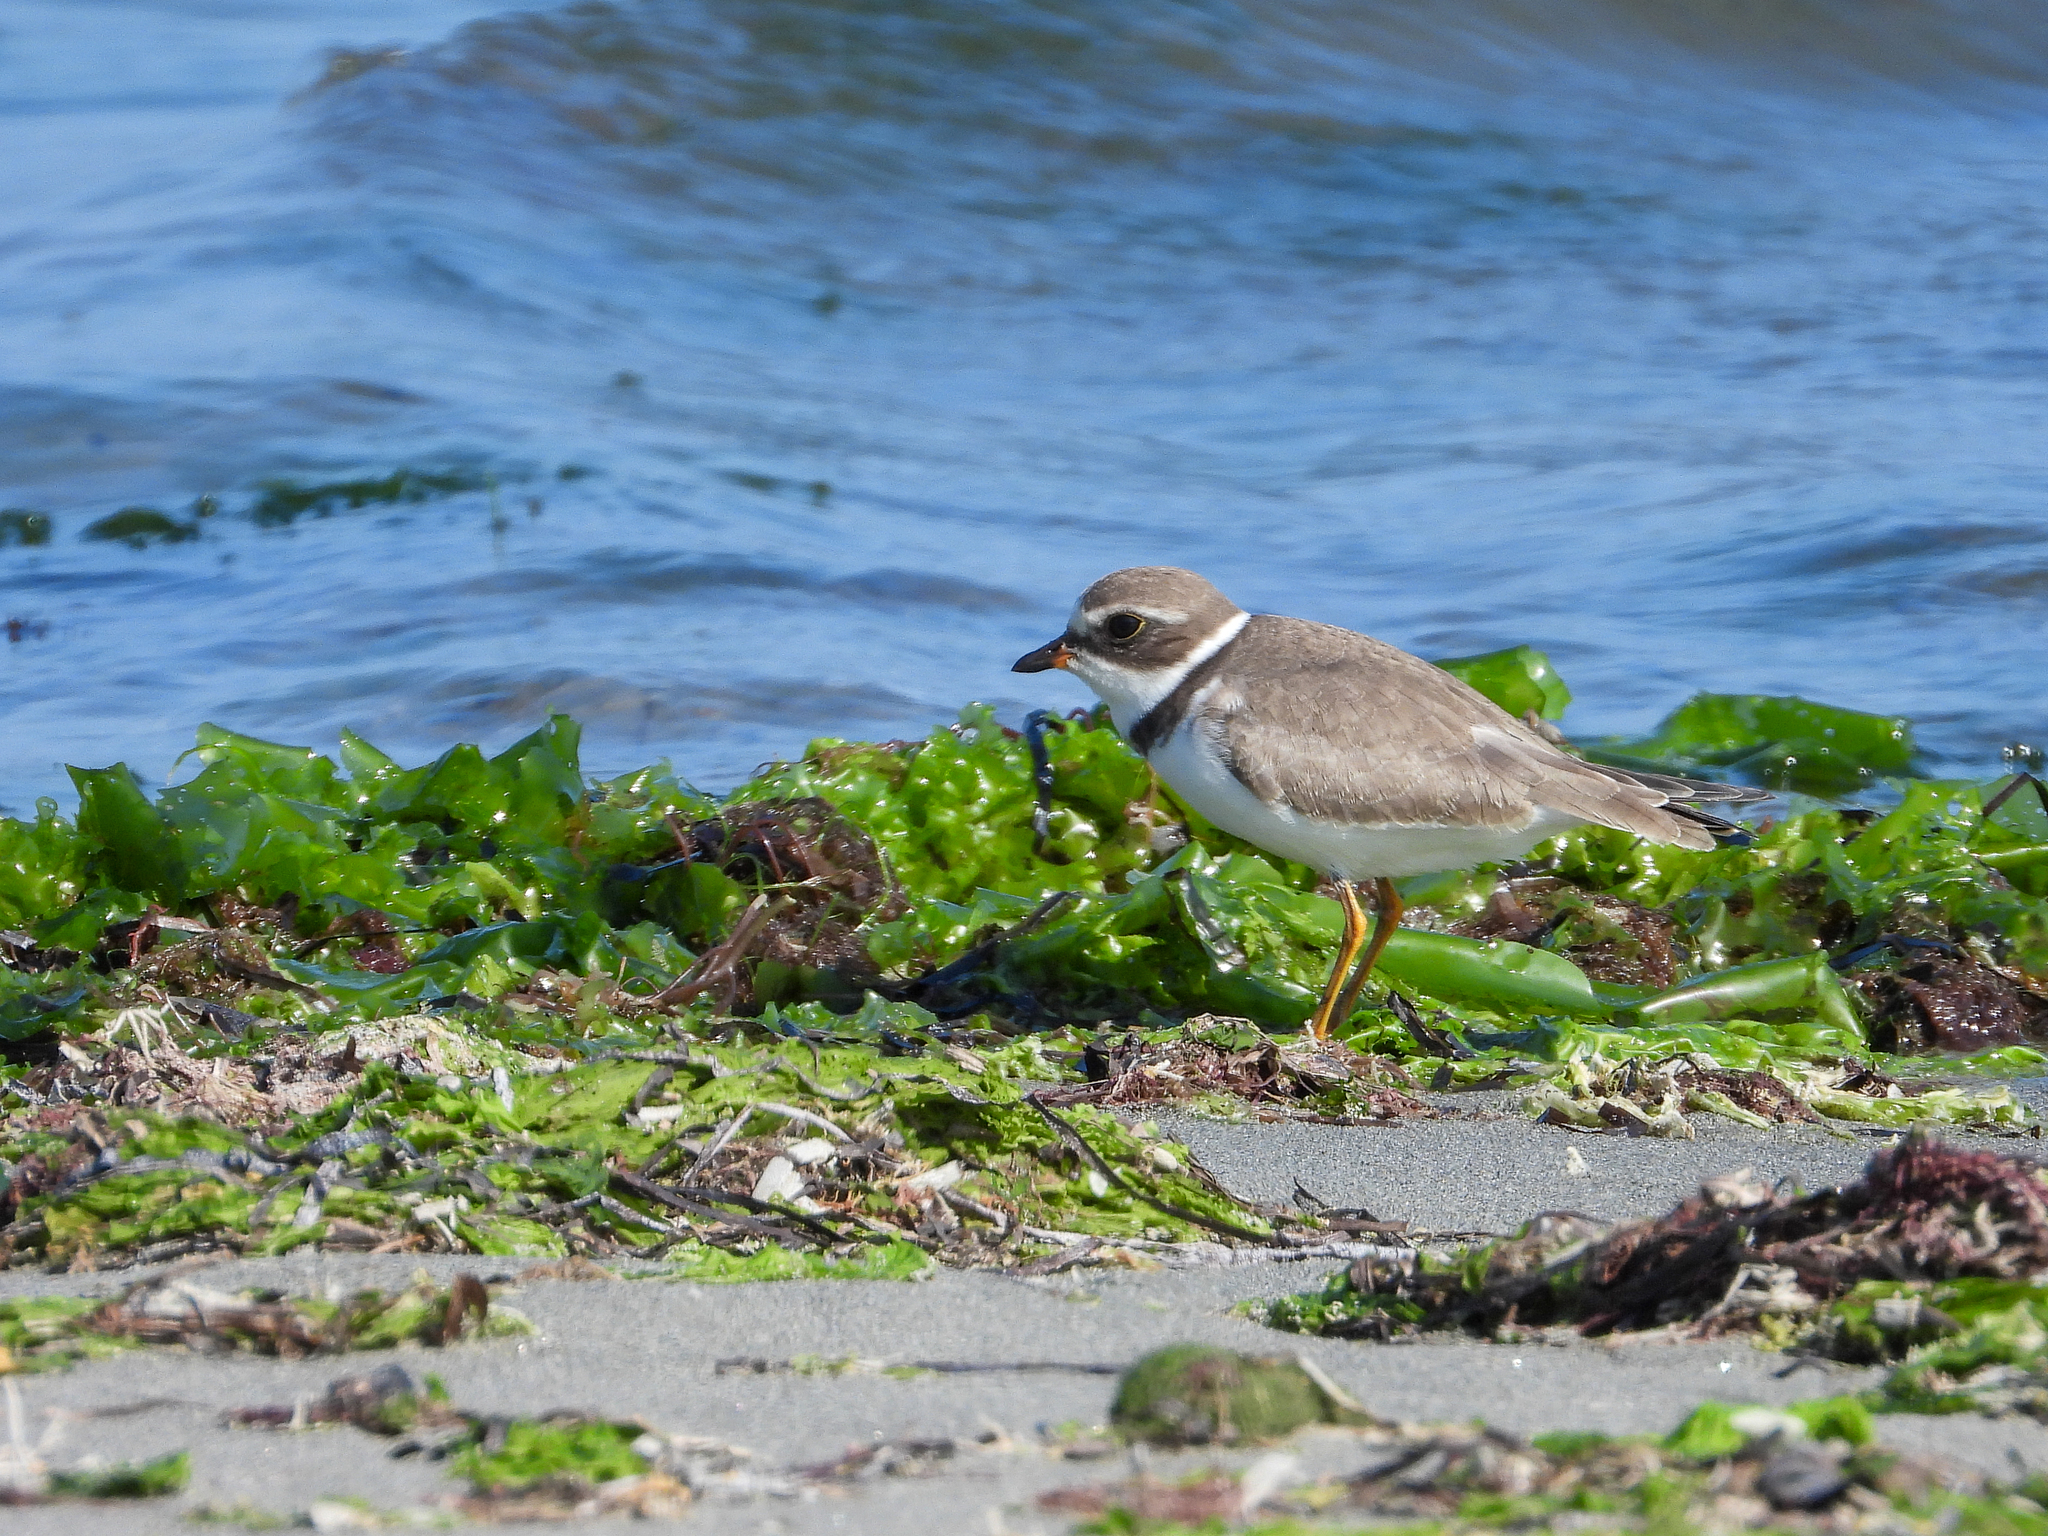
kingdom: Animalia
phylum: Chordata
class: Aves
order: Charadriiformes
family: Charadriidae
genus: Charadrius
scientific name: Charadrius semipalmatus
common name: Semipalmated plover
